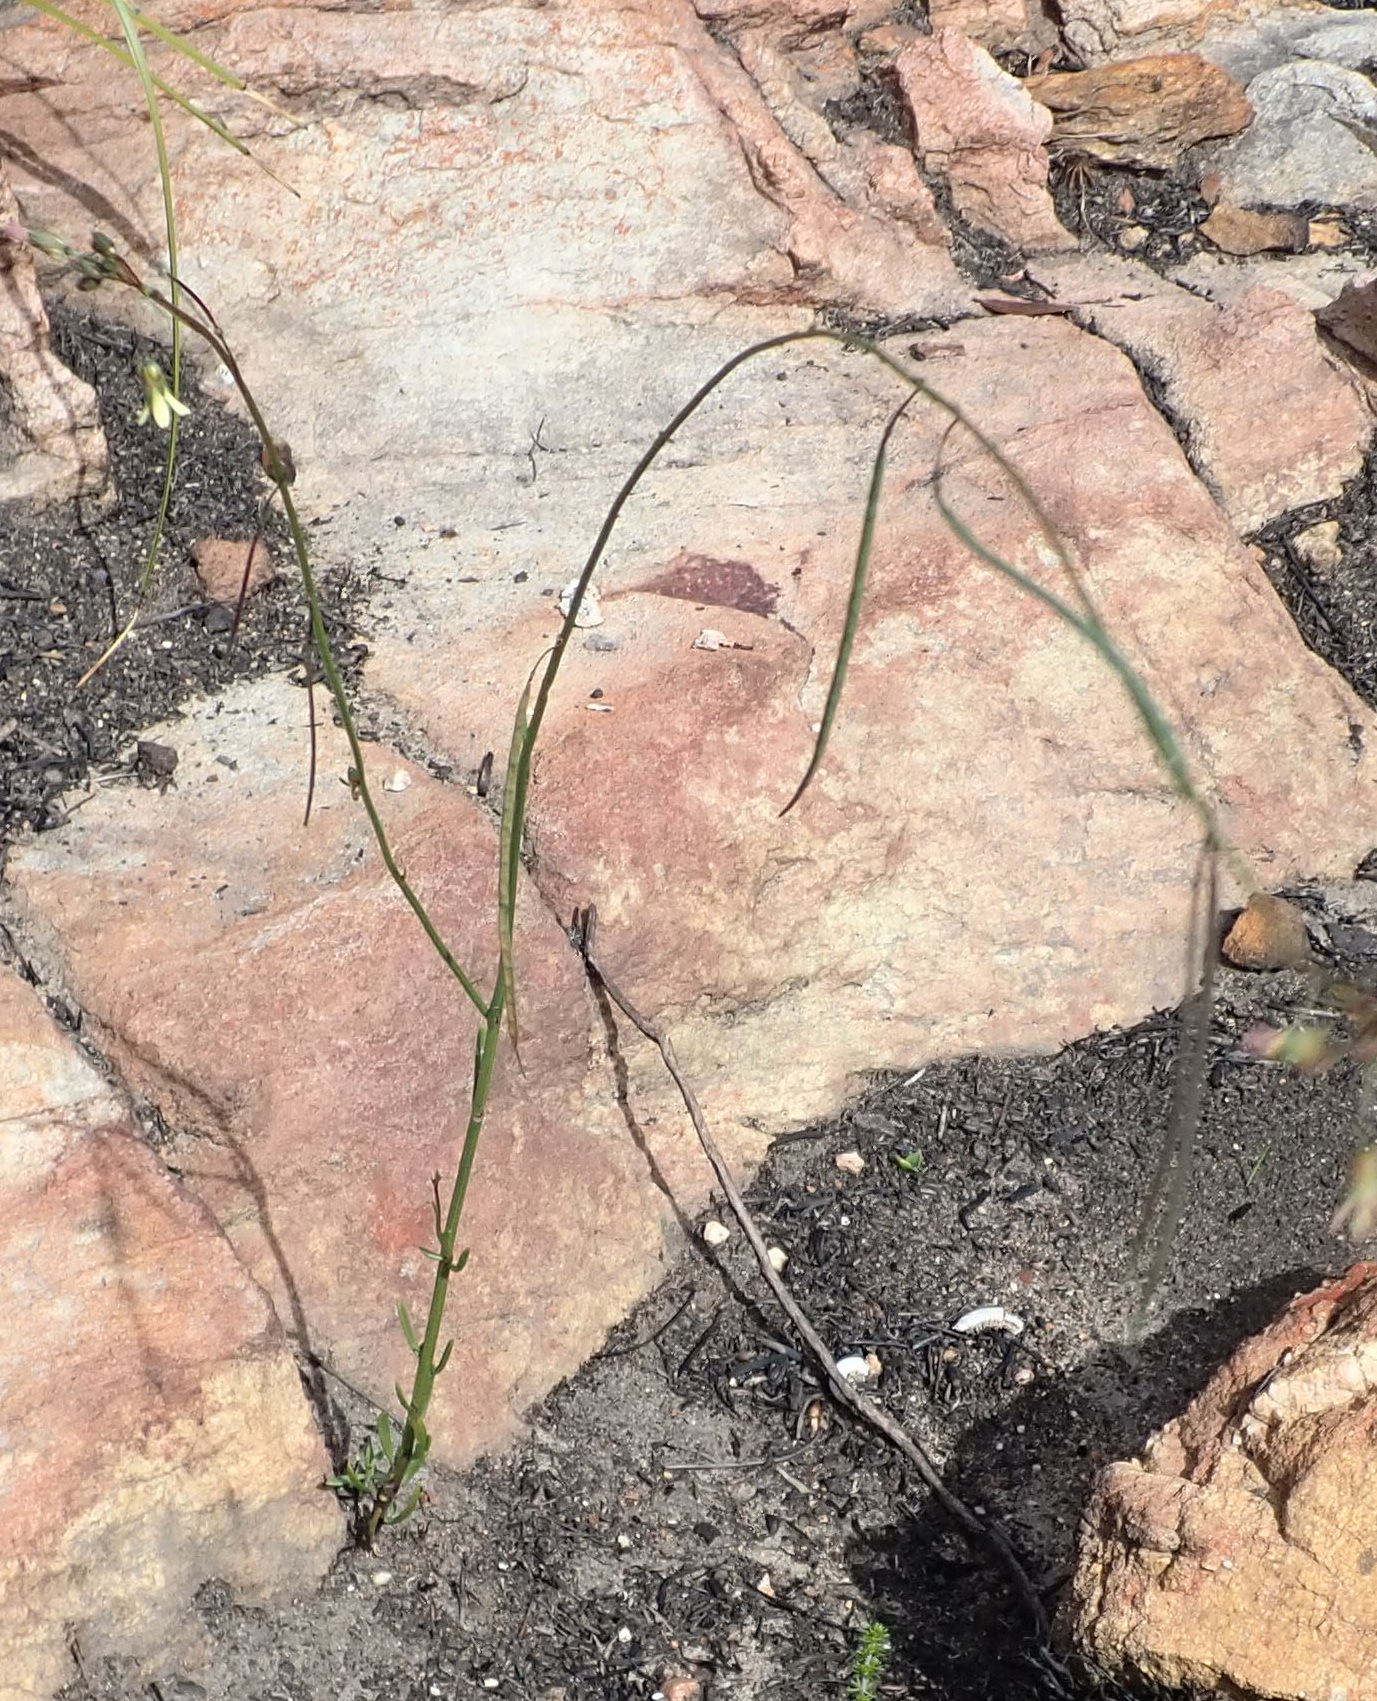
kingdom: Plantae
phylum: Tracheophyta
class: Magnoliopsida
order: Brassicales
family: Brassicaceae
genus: Heliophila
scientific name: Heliophila elongata
